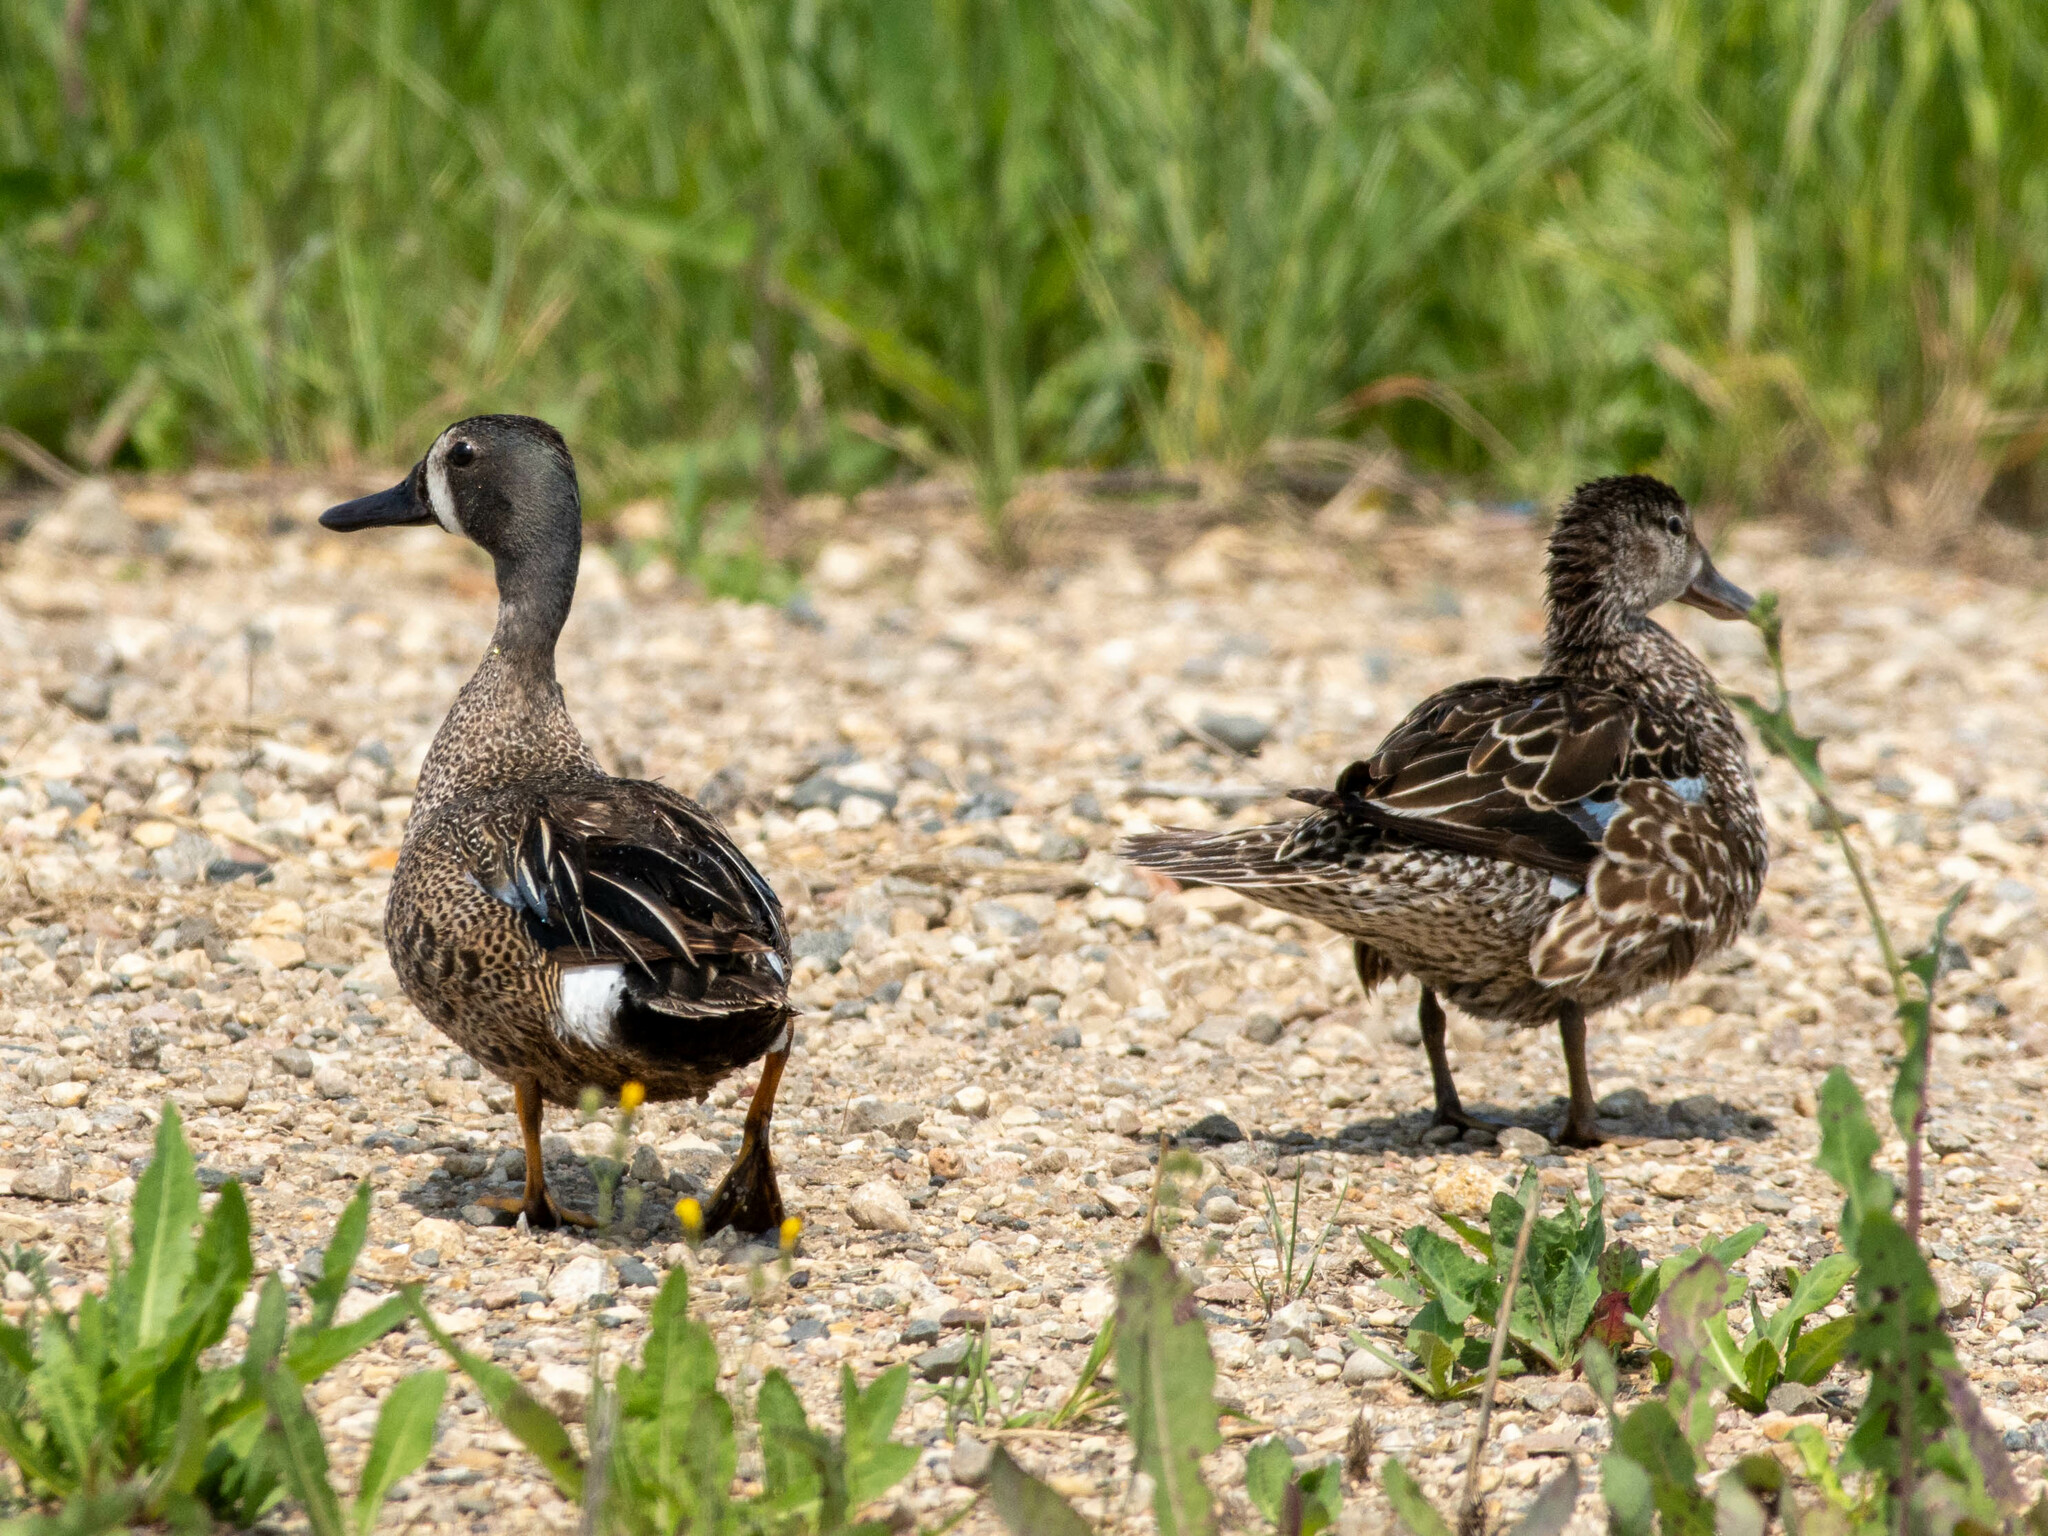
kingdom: Animalia
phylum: Chordata
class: Aves
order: Anseriformes
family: Anatidae
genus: Spatula
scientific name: Spatula discors
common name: Blue-winged teal
